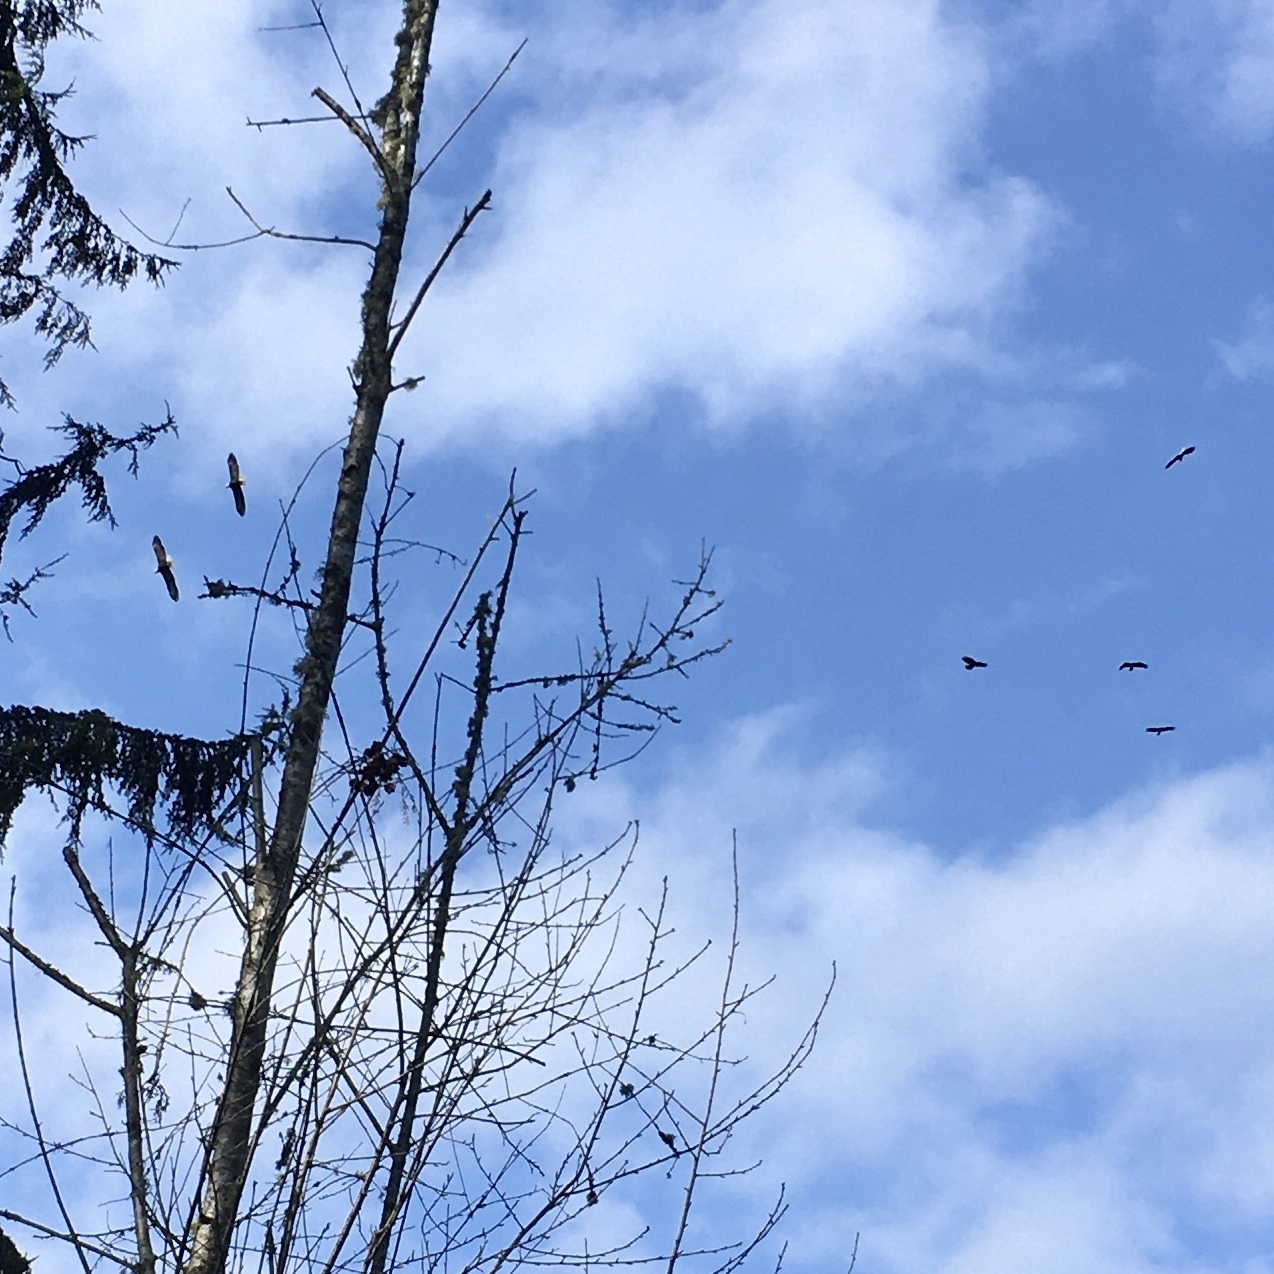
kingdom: Animalia
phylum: Chordata
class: Aves
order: Accipitriformes
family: Accipitridae
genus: Haliaeetus
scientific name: Haliaeetus leucocephalus
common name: Bald eagle
